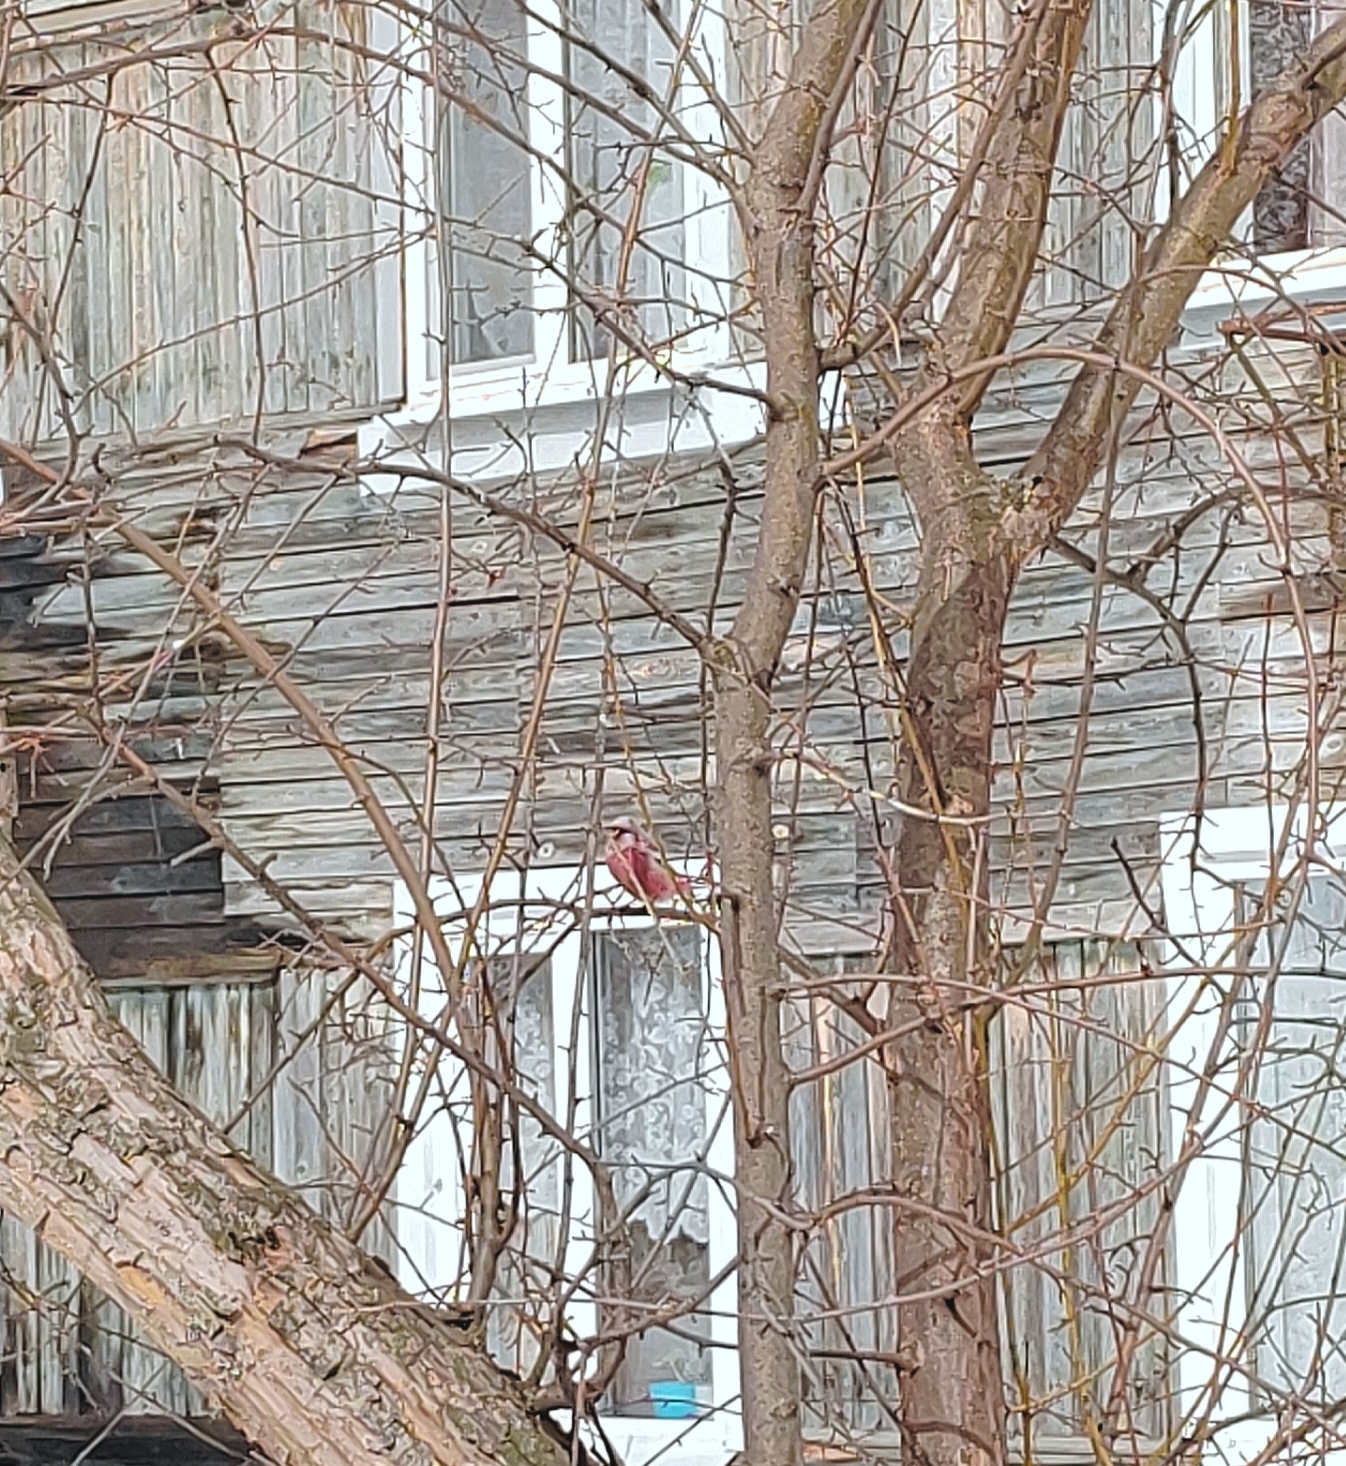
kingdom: Animalia
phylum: Chordata
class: Aves
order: Passeriformes
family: Fringillidae
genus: Carpodacus
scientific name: Carpodacus sibiricus
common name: Long-tailed rosefinch
